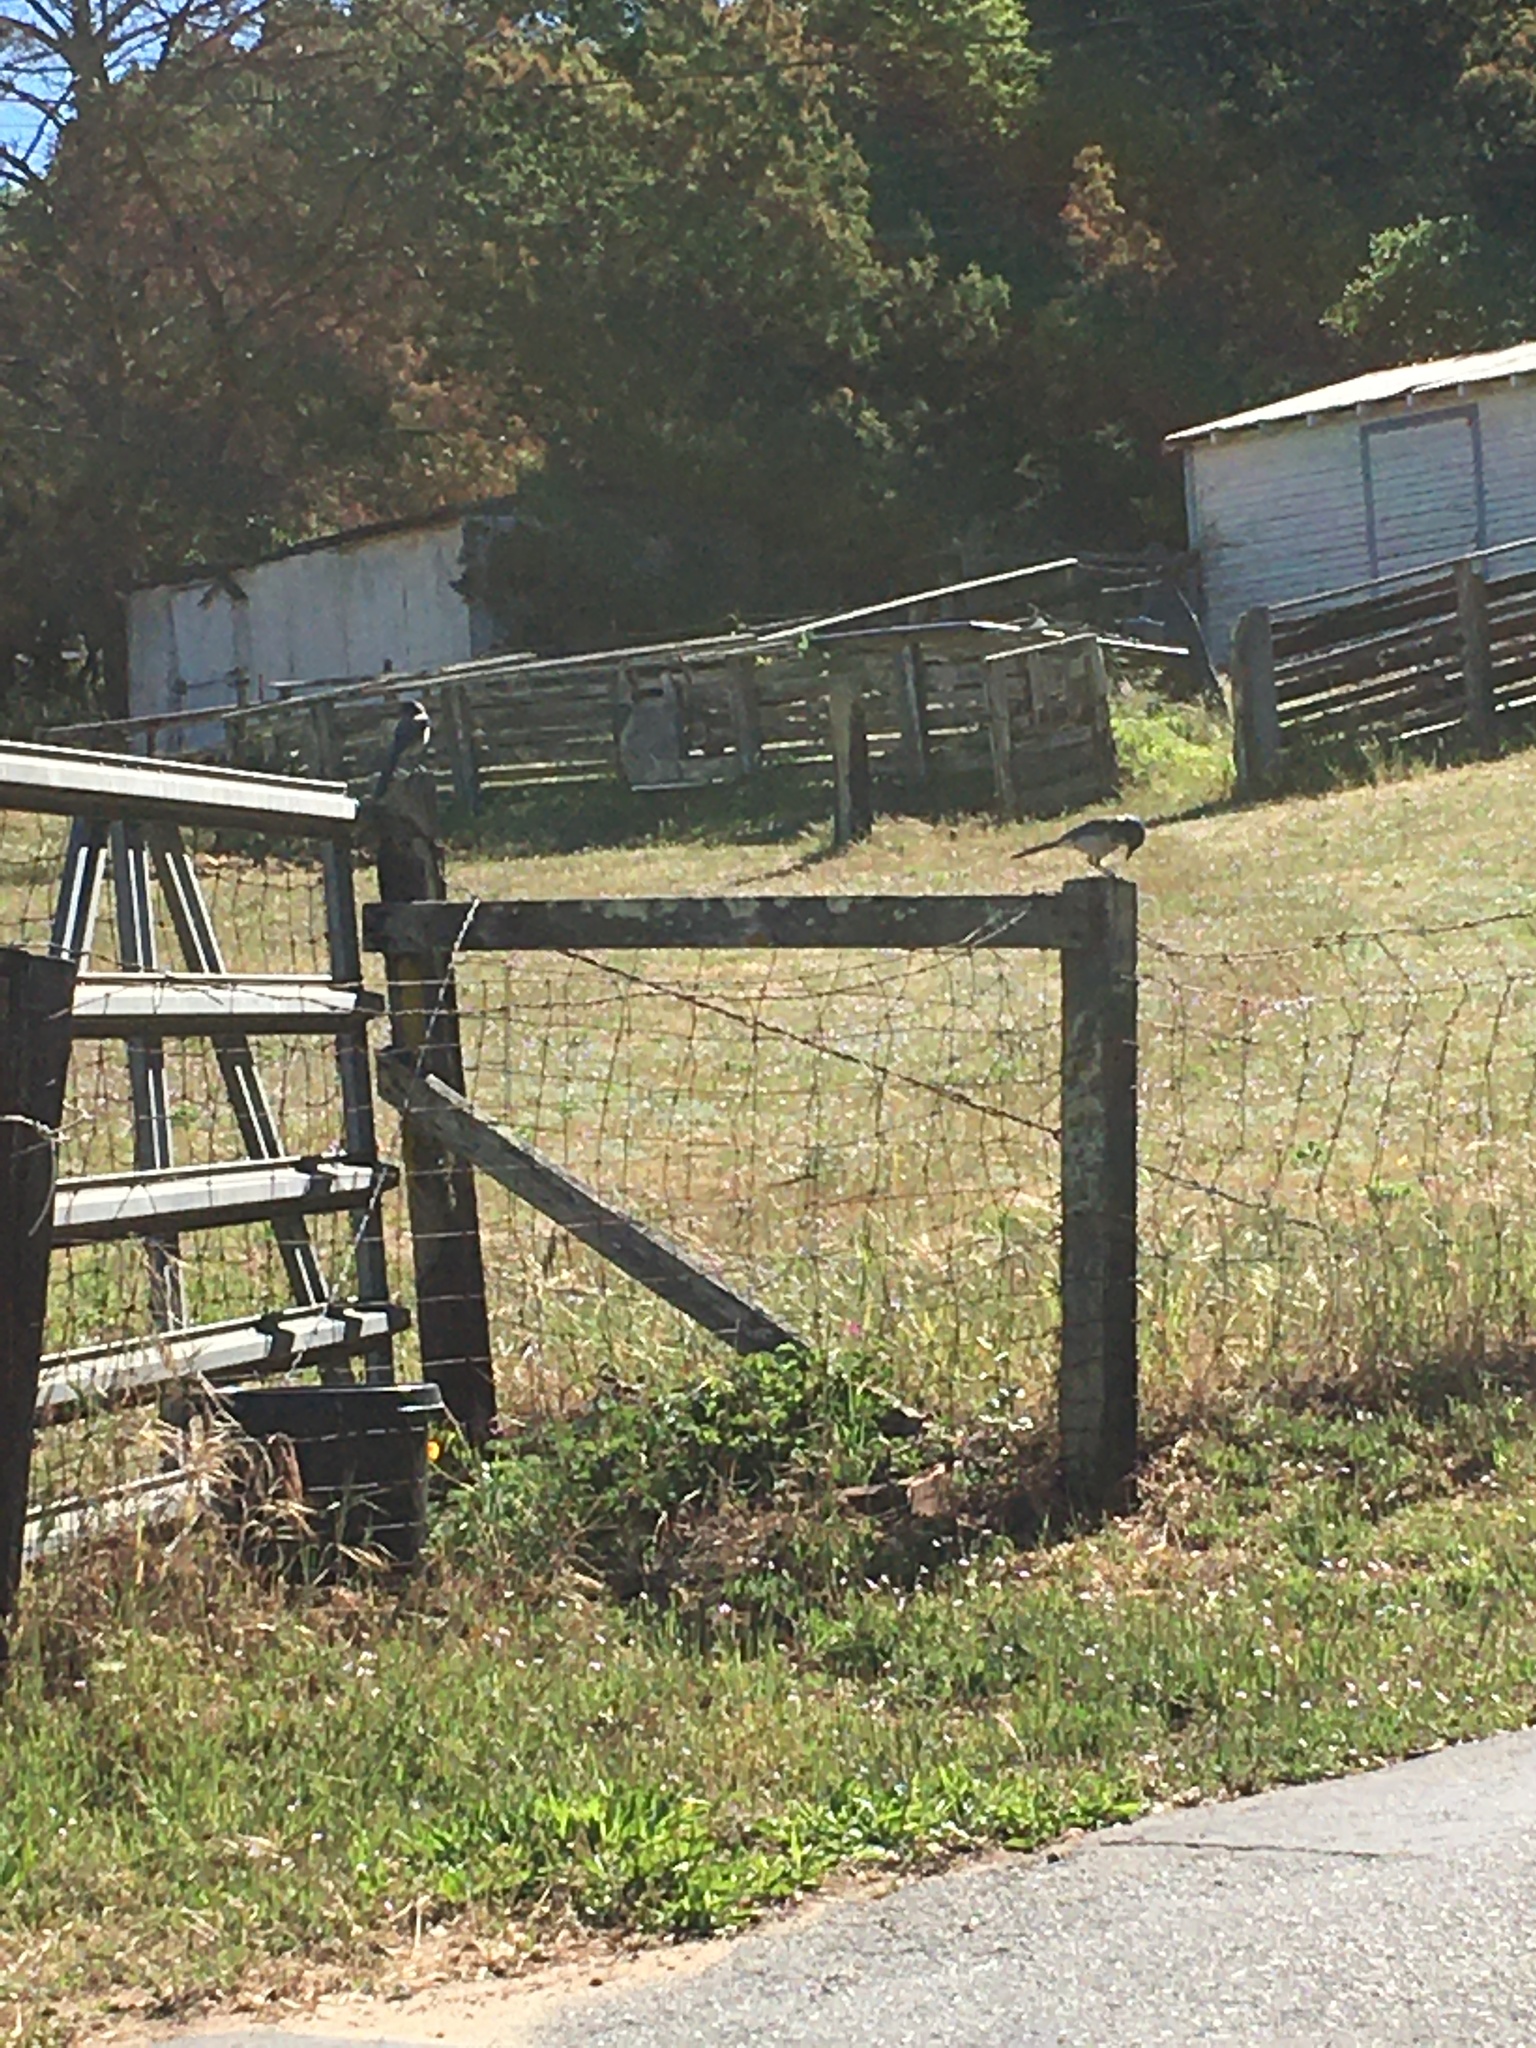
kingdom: Animalia
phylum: Chordata
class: Aves
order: Passeriformes
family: Corvidae
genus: Aphelocoma
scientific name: Aphelocoma californica
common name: California scrub-jay
